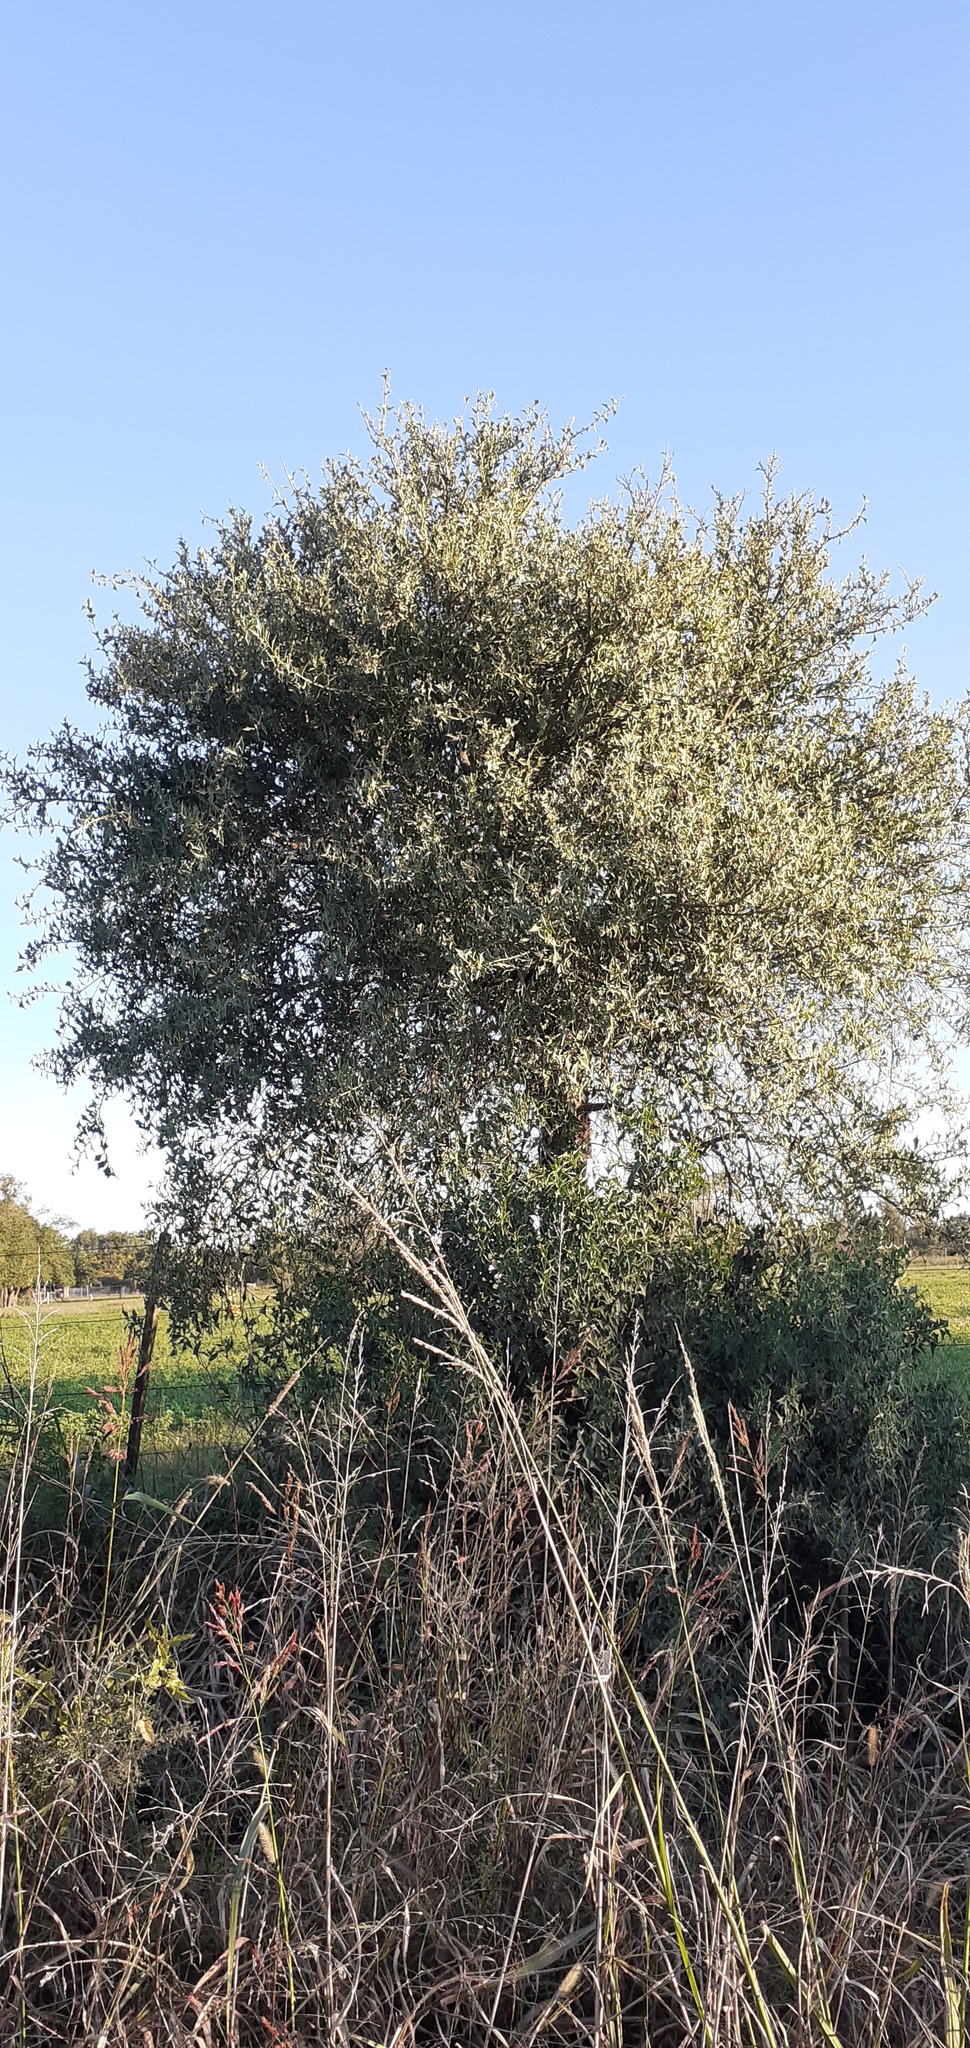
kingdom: Plantae
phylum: Tracheophyta
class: Magnoliopsida
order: Santalales
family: Cervantesiaceae
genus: Jodina
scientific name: Jodina rhombifolia
